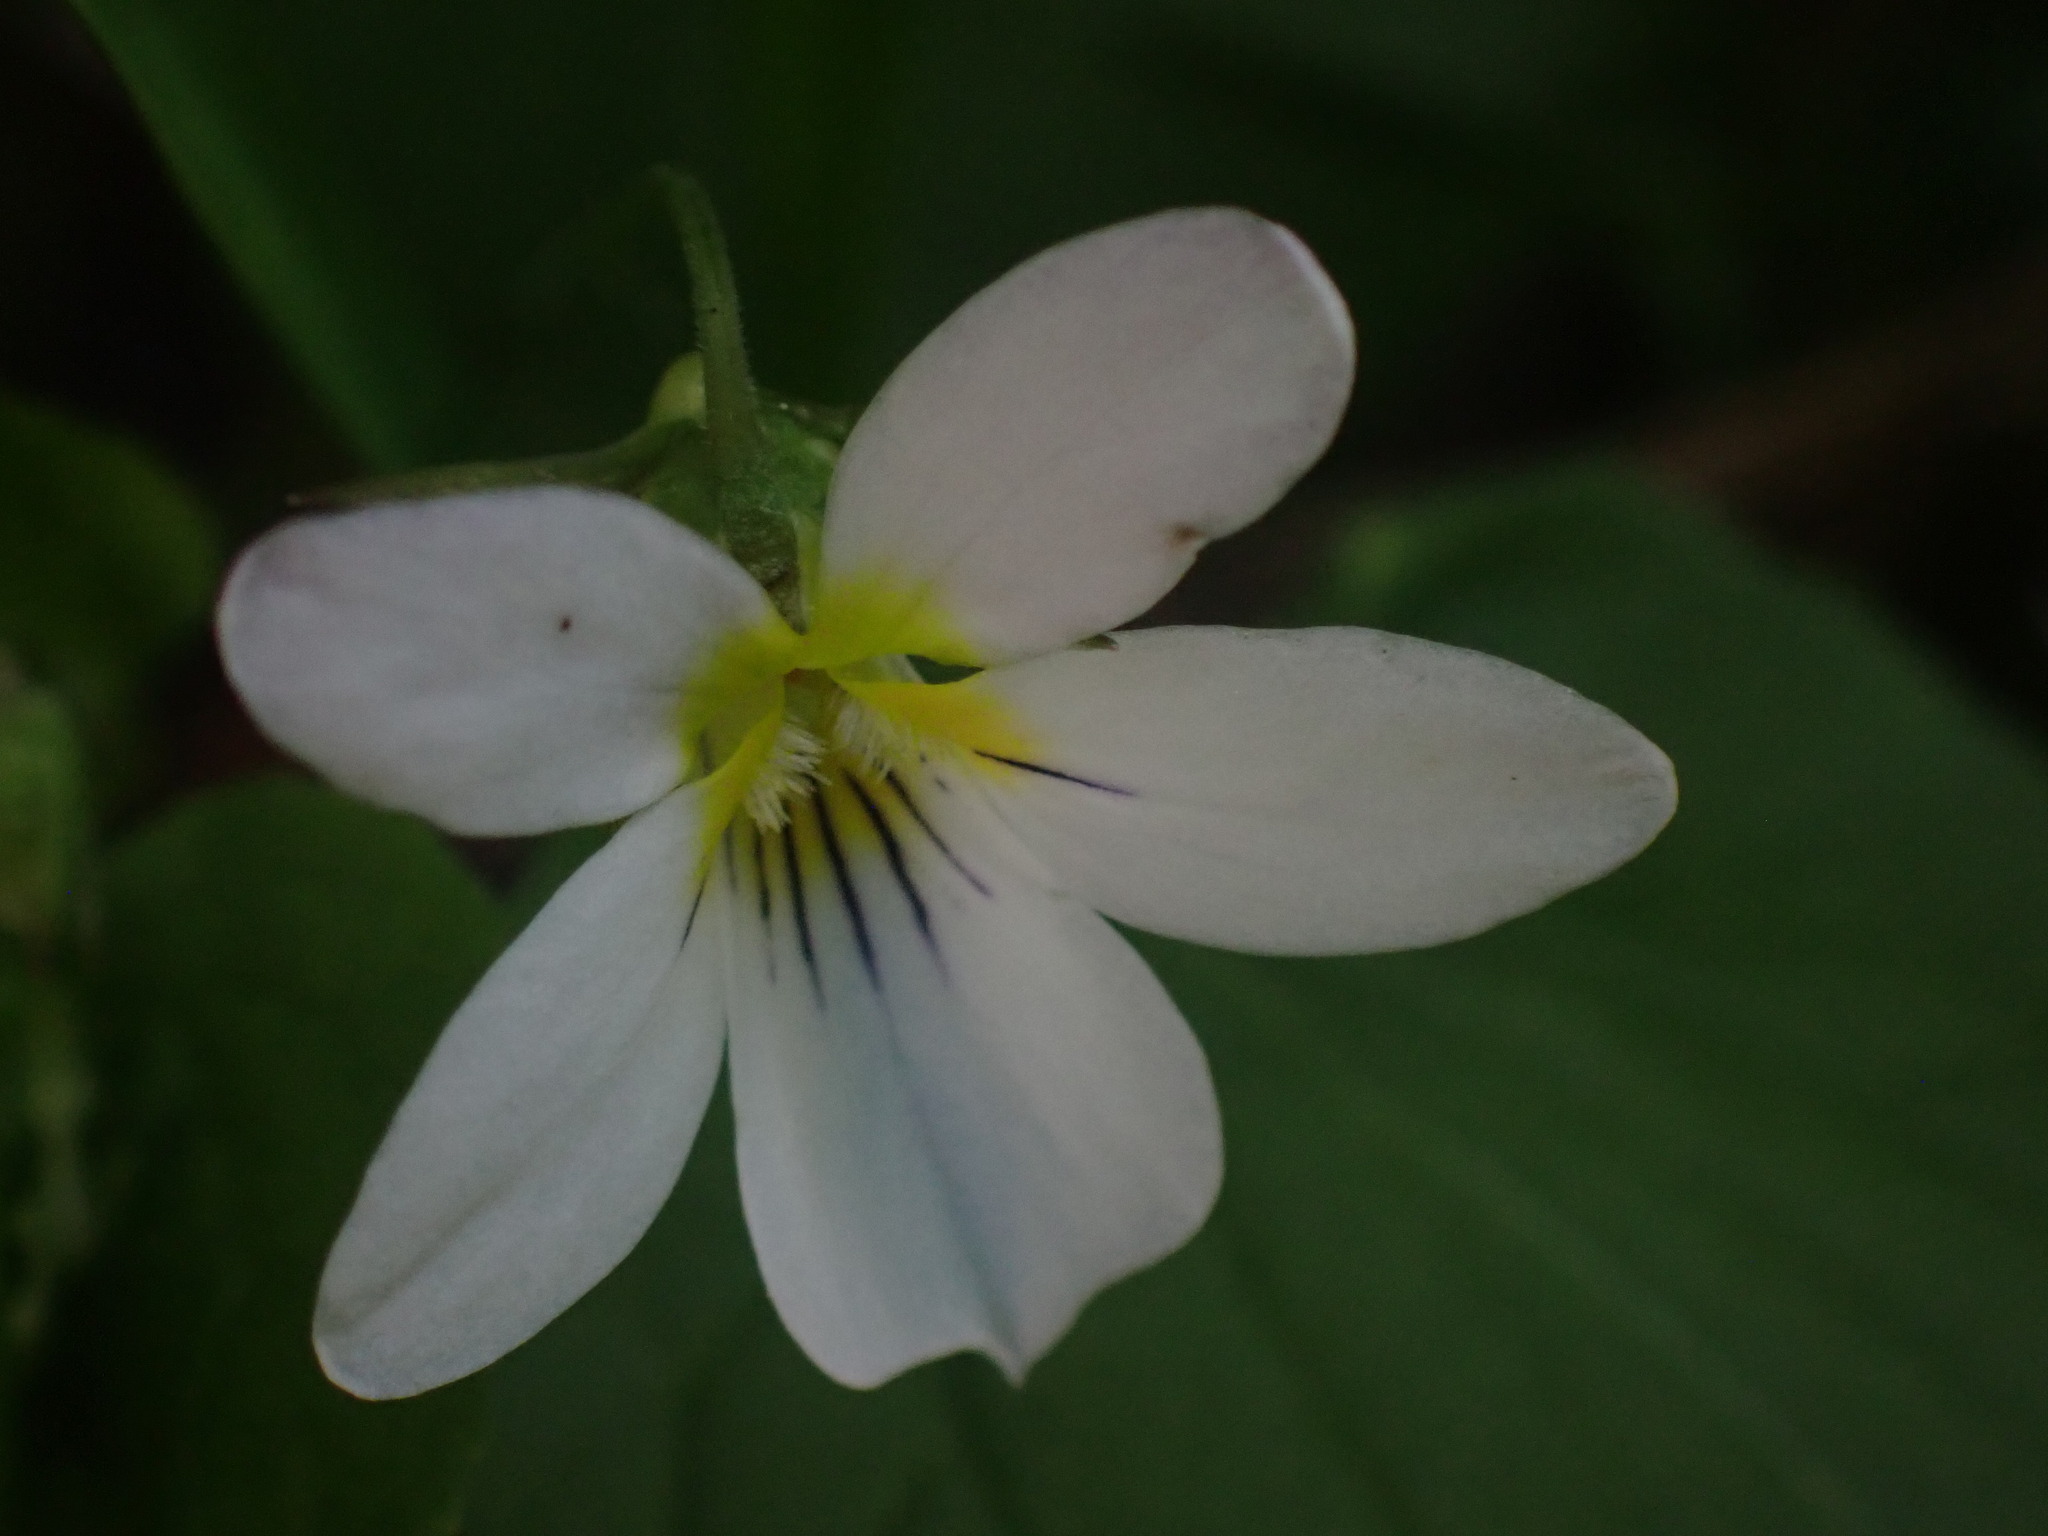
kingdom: Plantae
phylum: Tracheophyta
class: Magnoliopsida
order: Malpighiales
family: Violaceae
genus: Viola
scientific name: Viola canadensis
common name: Canada violet
